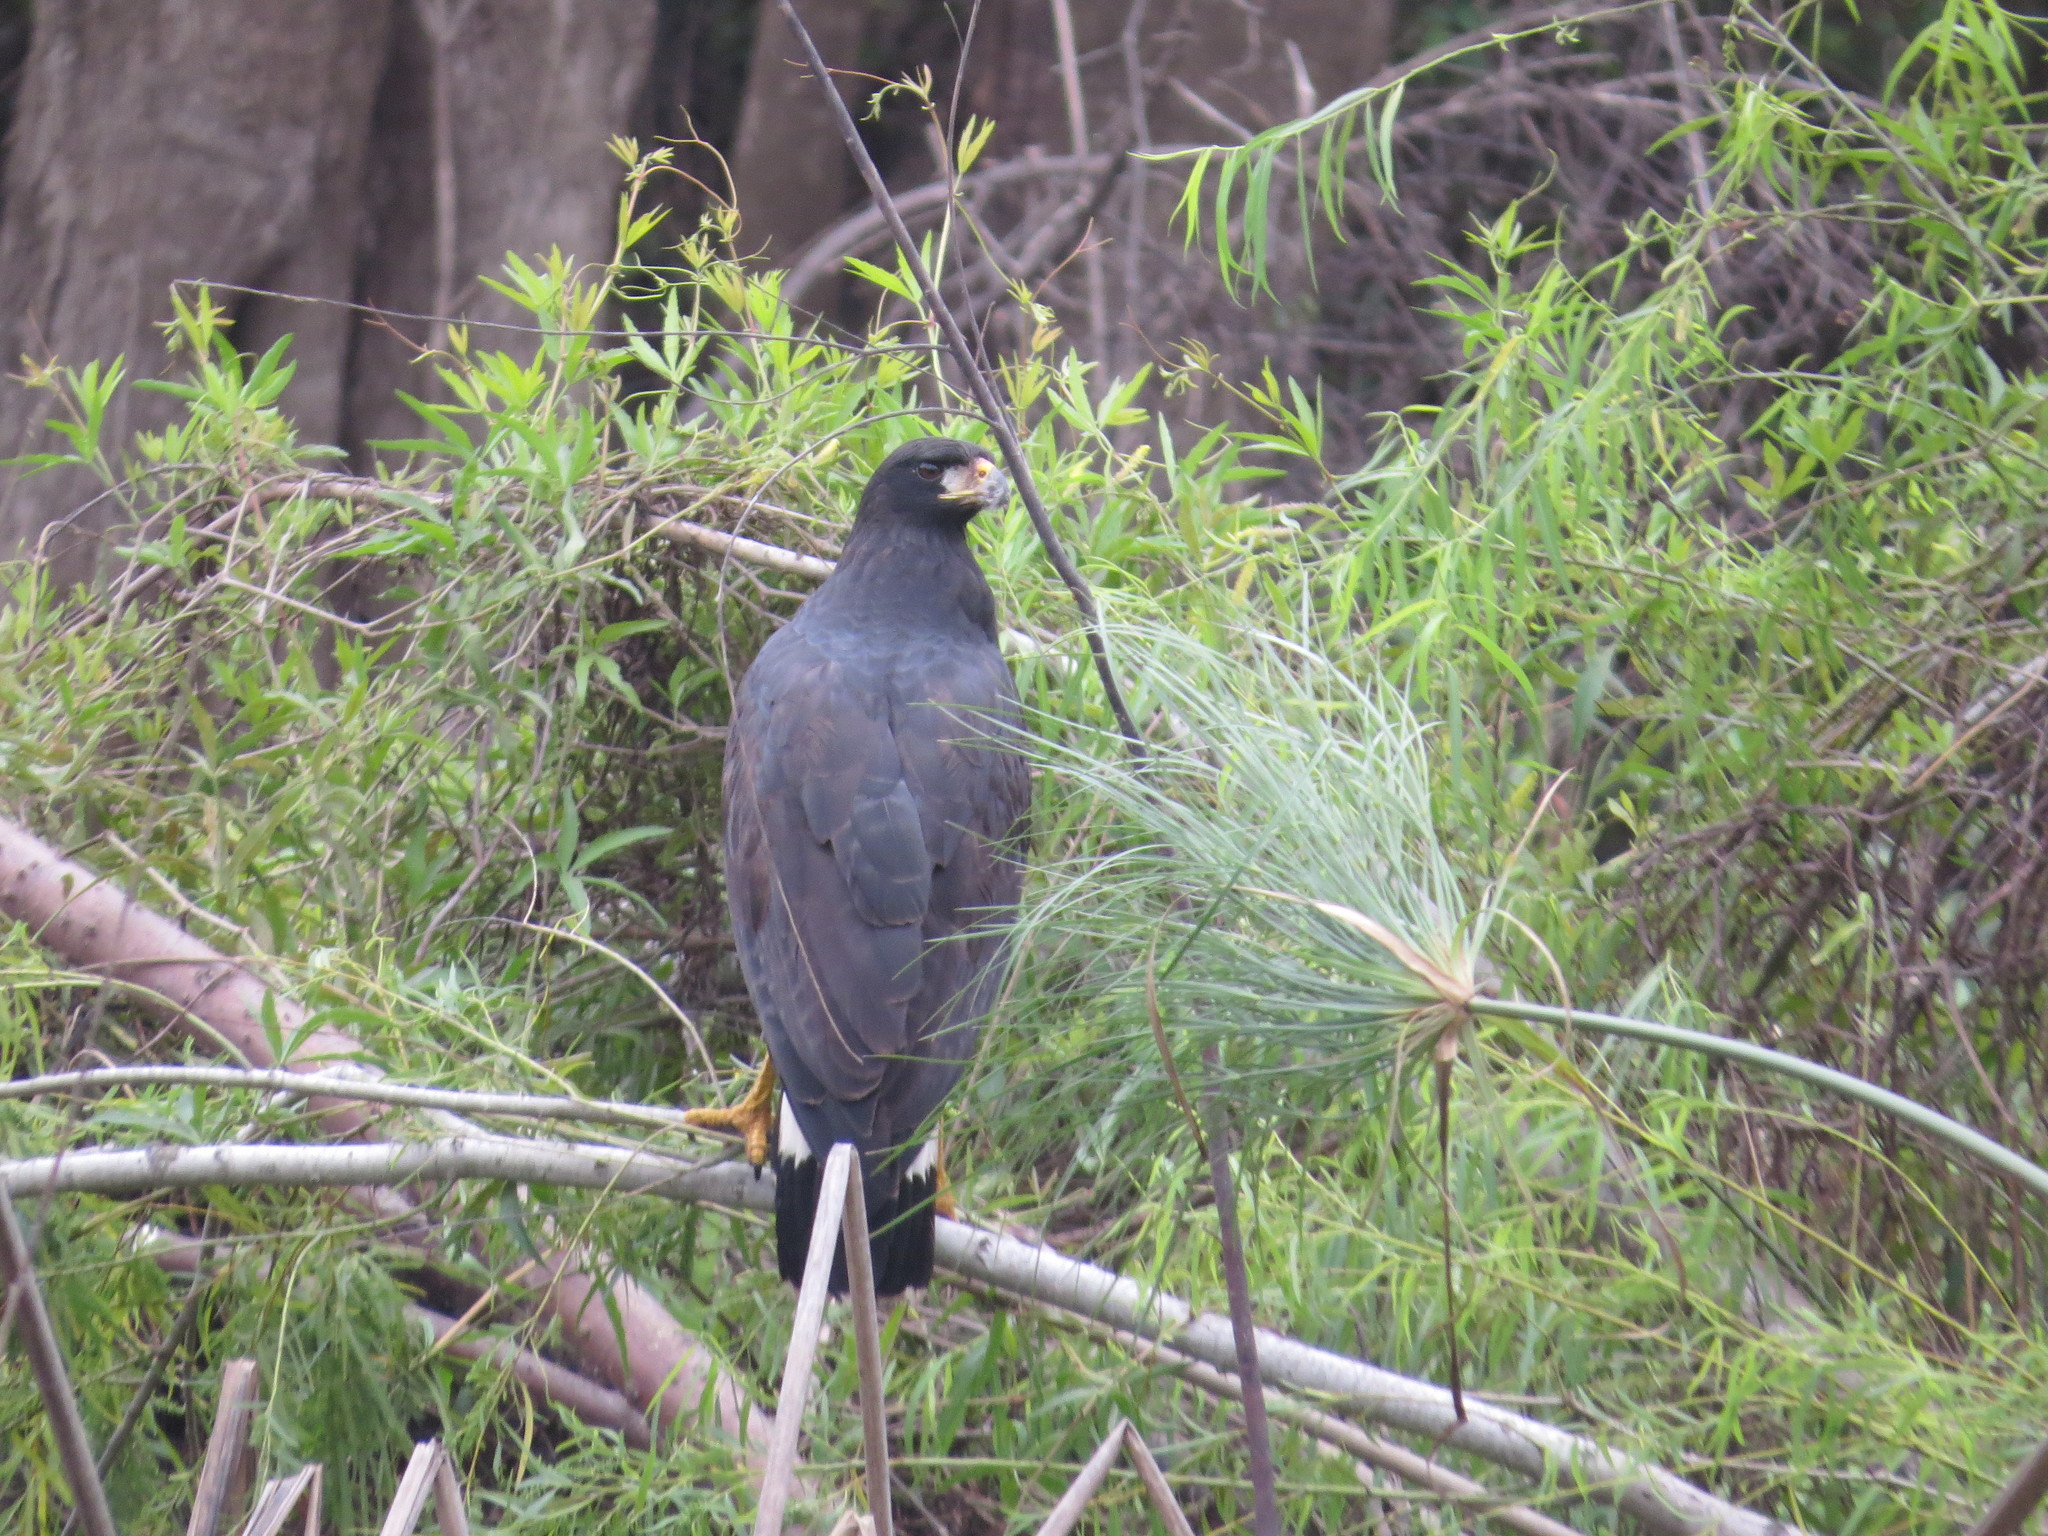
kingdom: Animalia
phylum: Chordata
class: Aves
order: Accipitriformes
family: Accipitridae
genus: Buteogallus
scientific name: Buteogallus urubitinga
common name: Great black hawk
